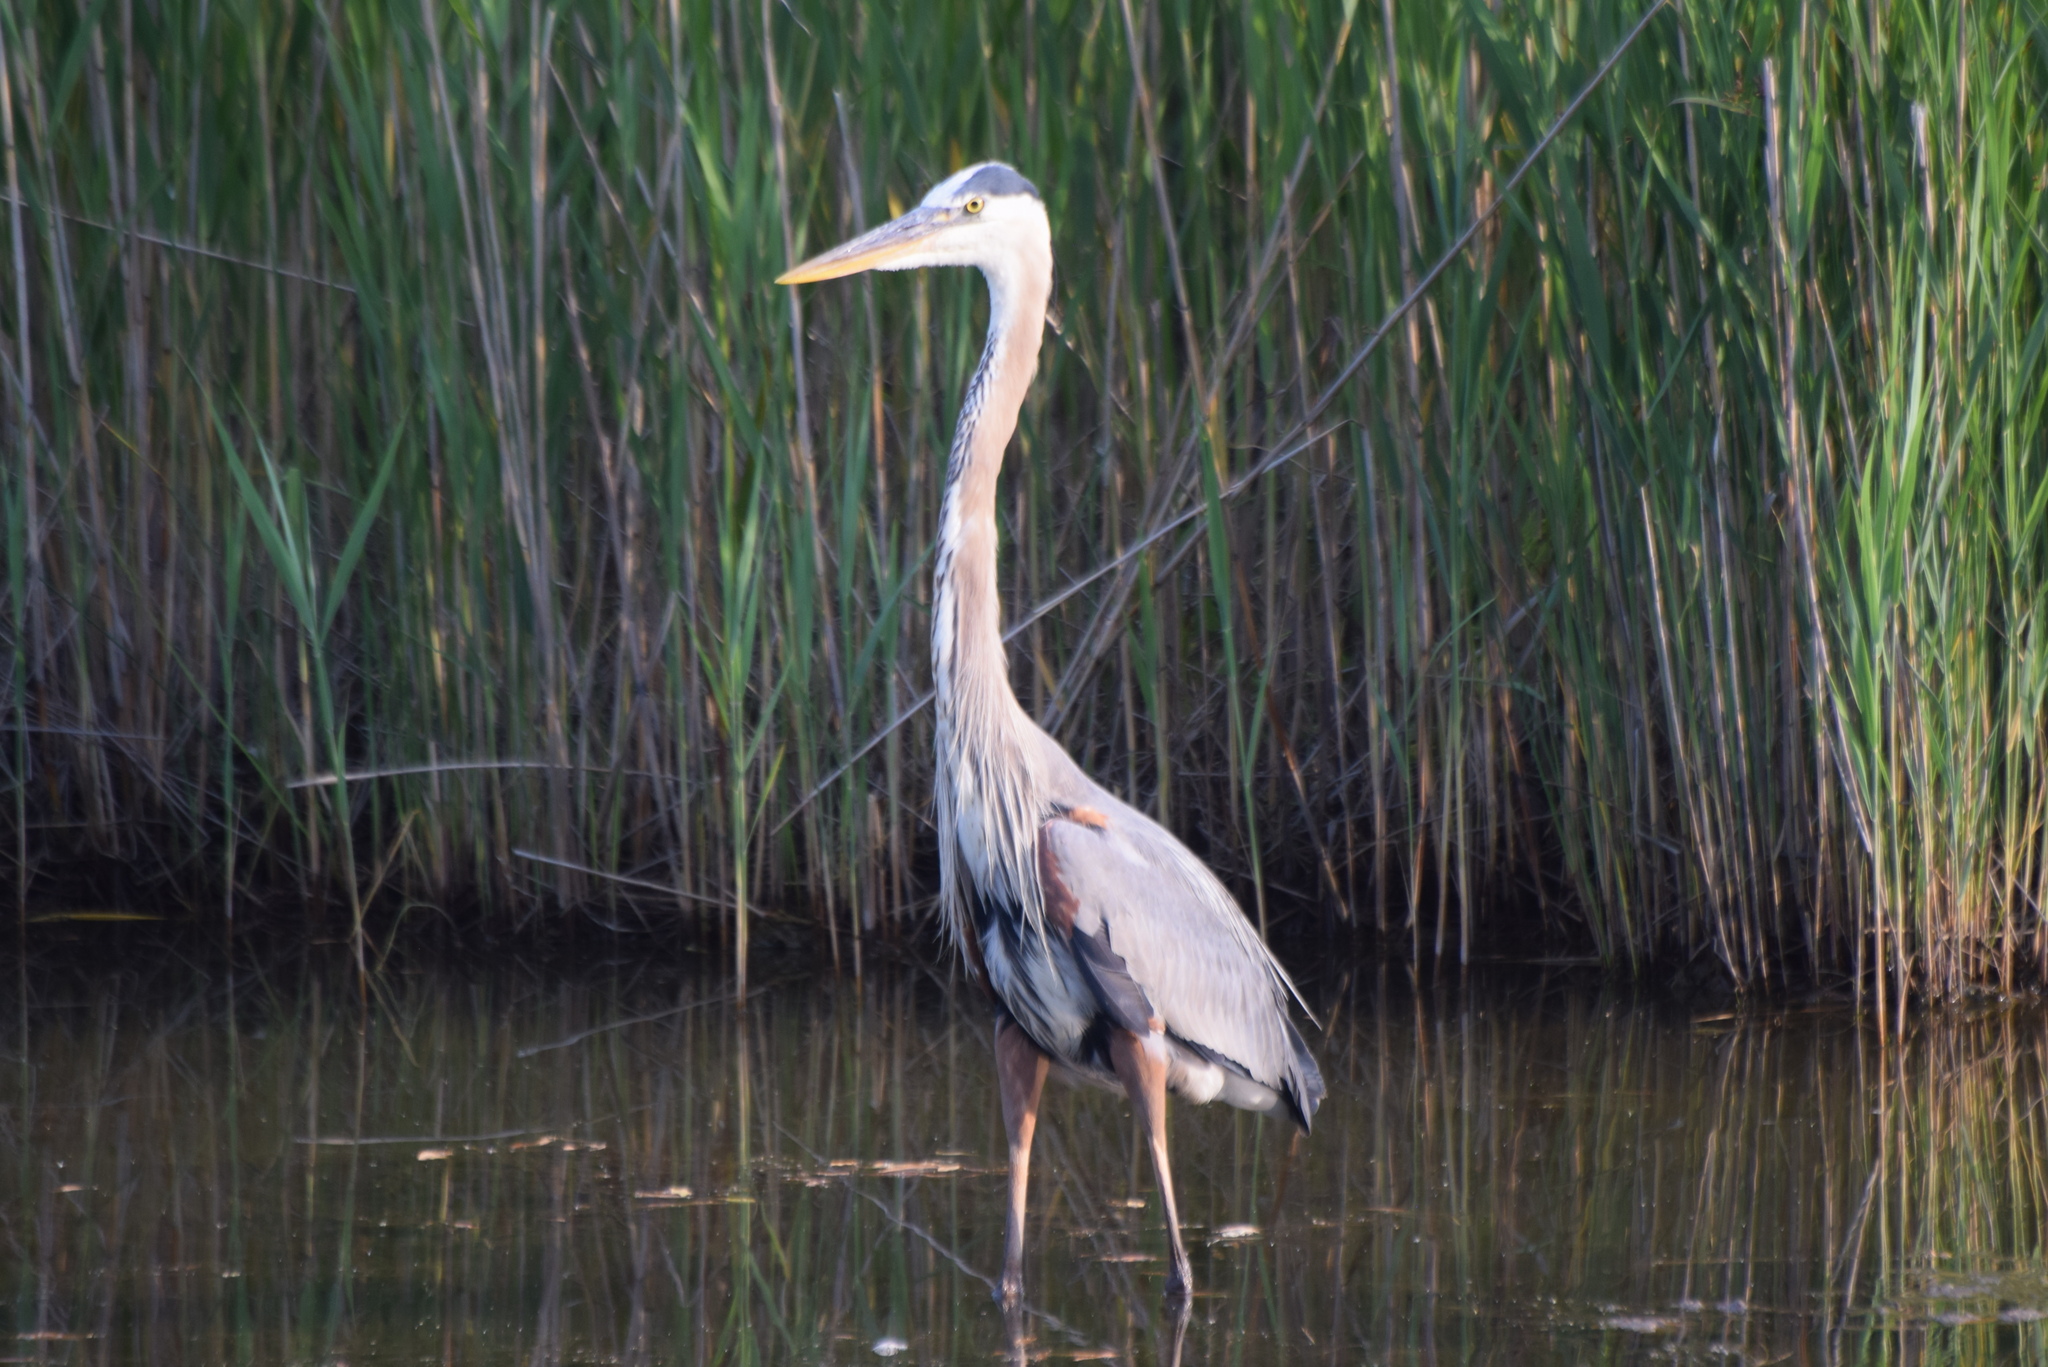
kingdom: Animalia
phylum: Chordata
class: Aves
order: Pelecaniformes
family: Ardeidae
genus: Ardea
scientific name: Ardea herodias
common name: Great blue heron
